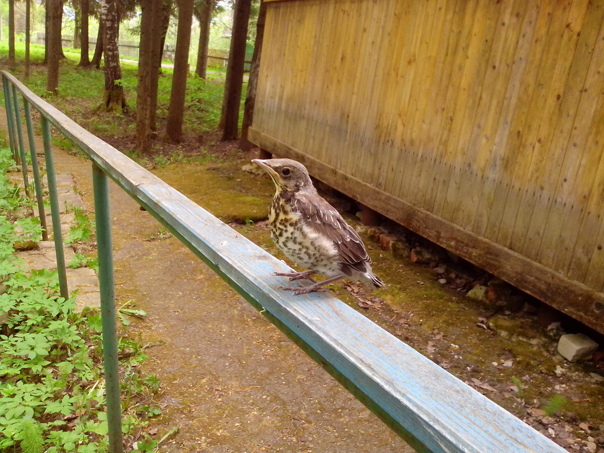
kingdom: Animalia
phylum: Chordata
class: Aves
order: Passeriformes
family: Turdidae
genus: Turdus
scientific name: Turdus pilaris
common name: Fieldfare
